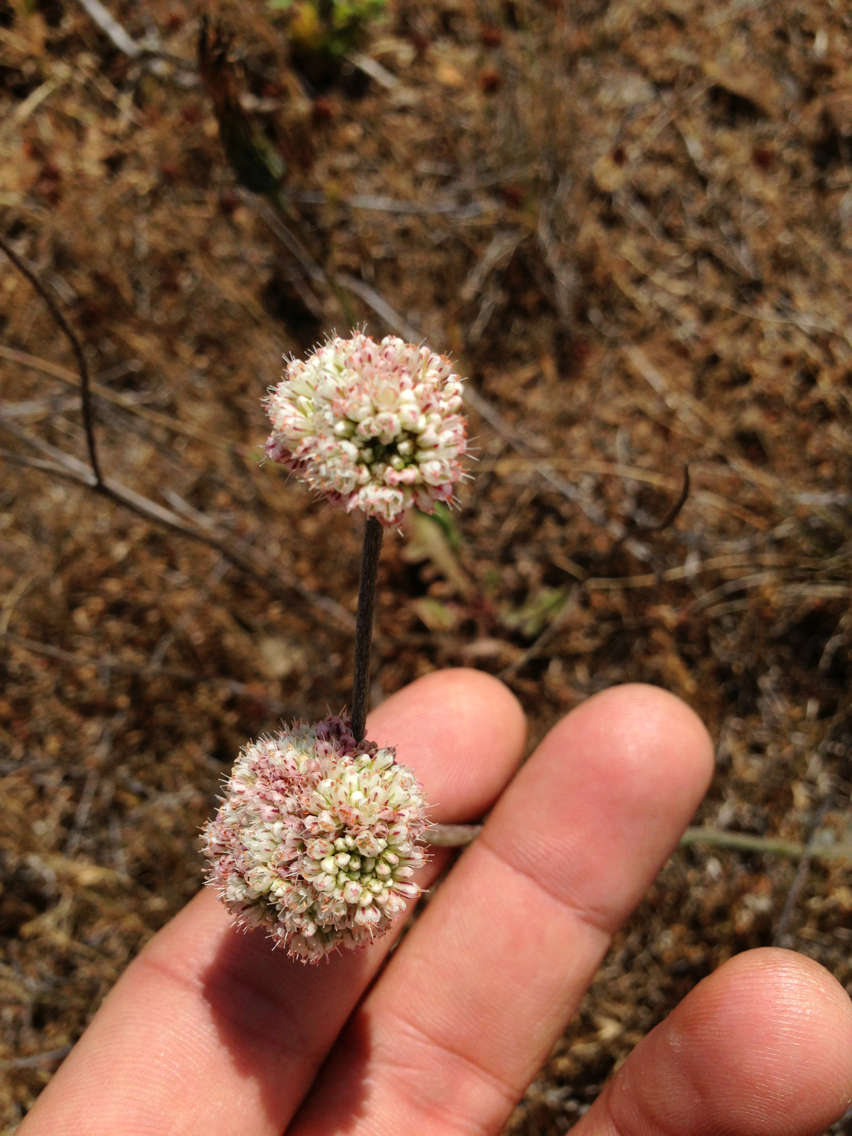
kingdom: Plantae
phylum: Tracheophyta
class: Magnoliopsida
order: Caryophyllales
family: Polygonaceae
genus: Eriogonum
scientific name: Eriogonum latifolium
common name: Seaside wild buckwheat
